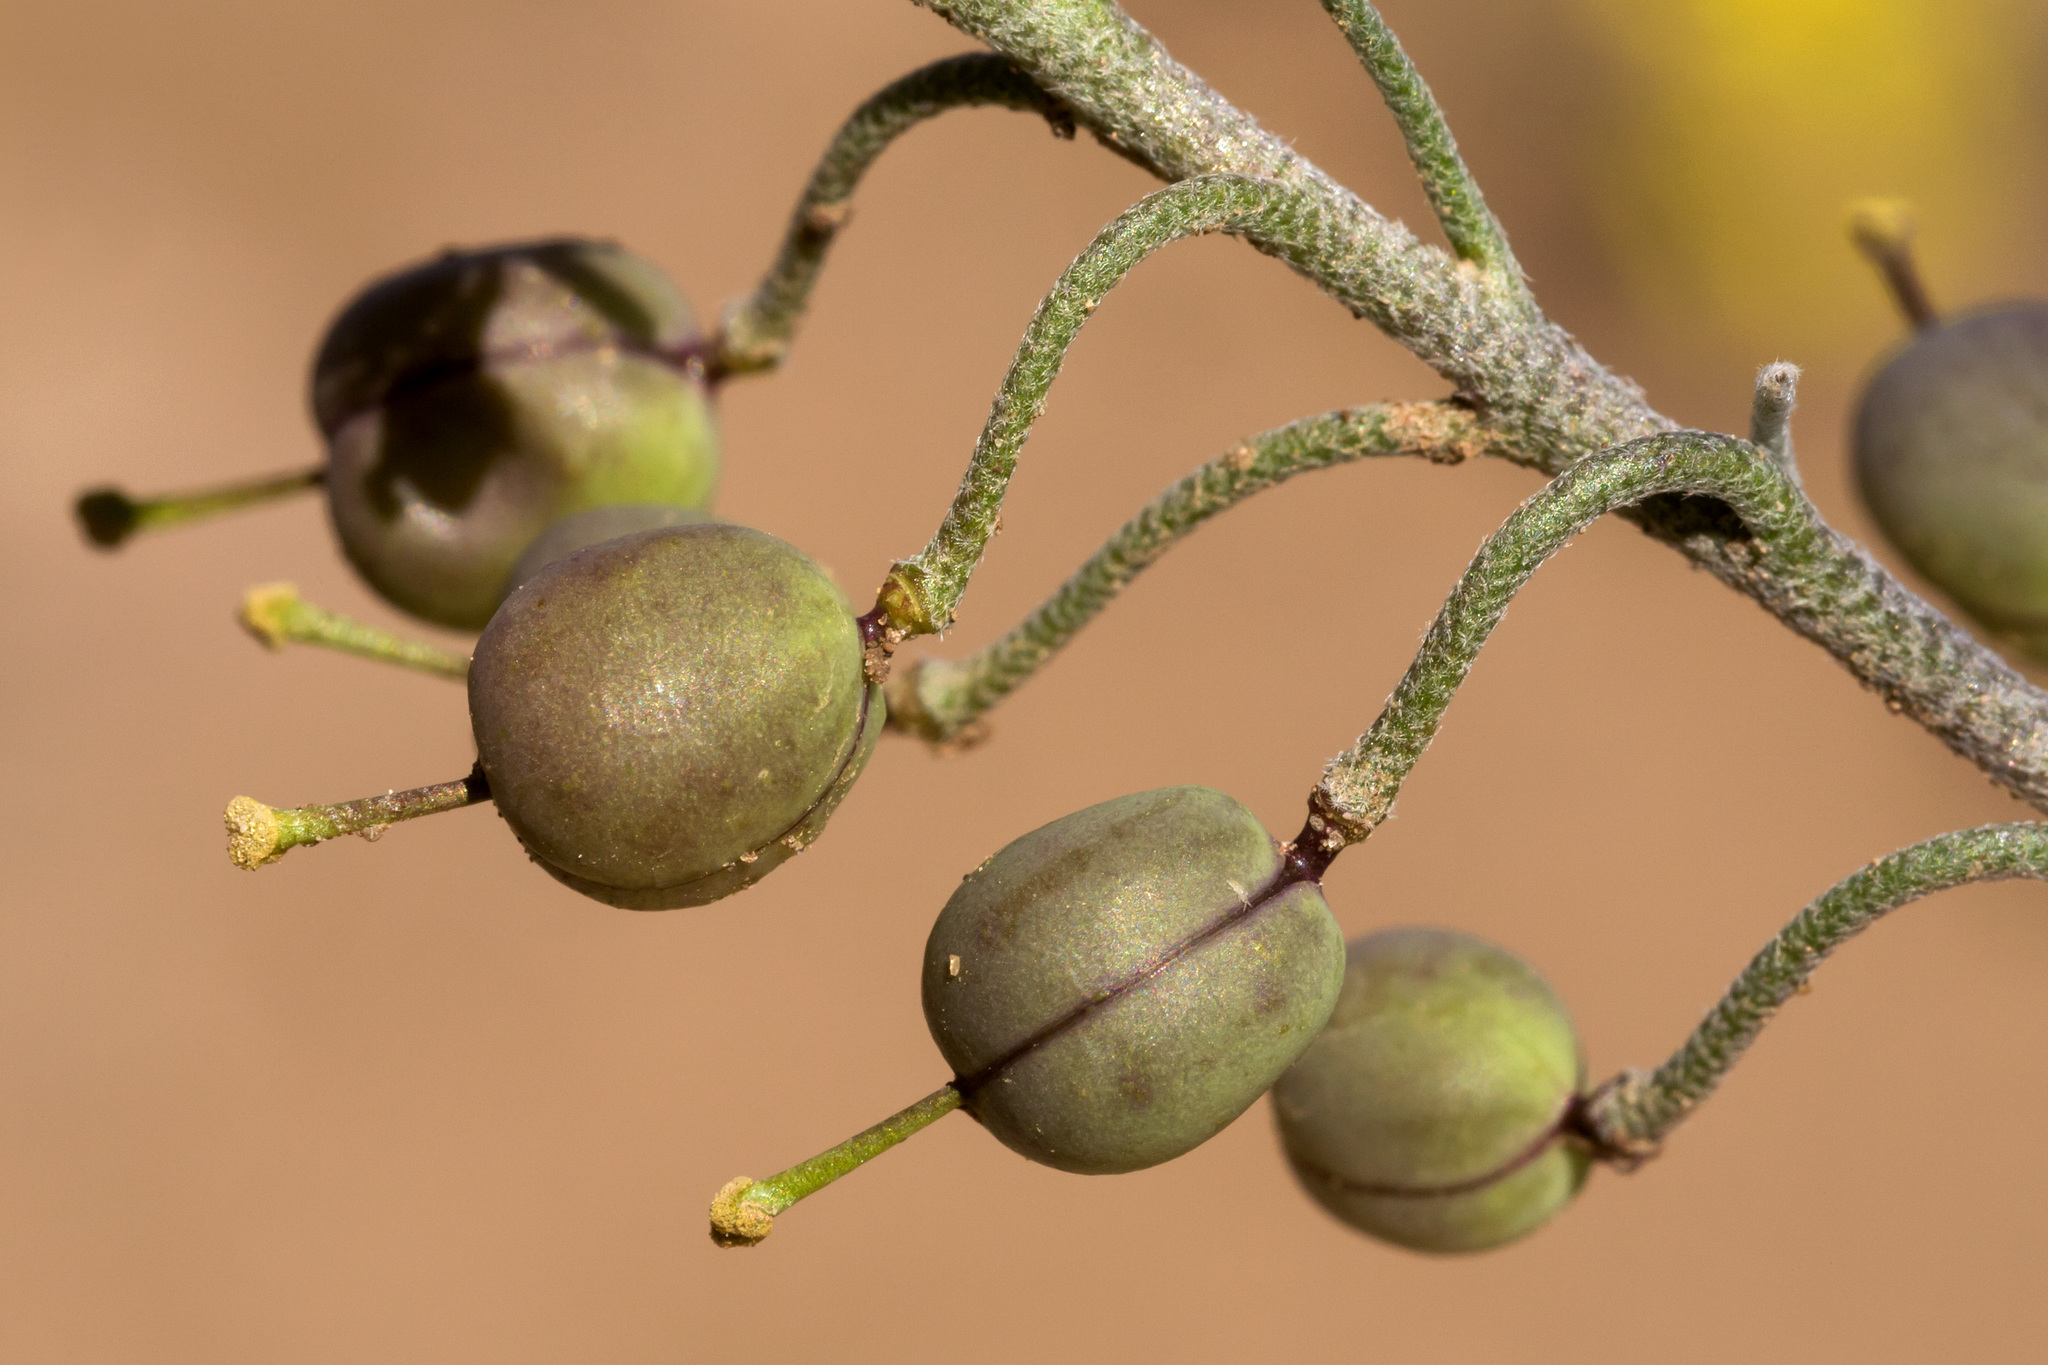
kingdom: Plantae
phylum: Tracheophyta
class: Magnoliopsida
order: Brassicales
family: Brassicaceae
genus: Physaria
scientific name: Physaria gordonii
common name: Gordon's bladderpod
